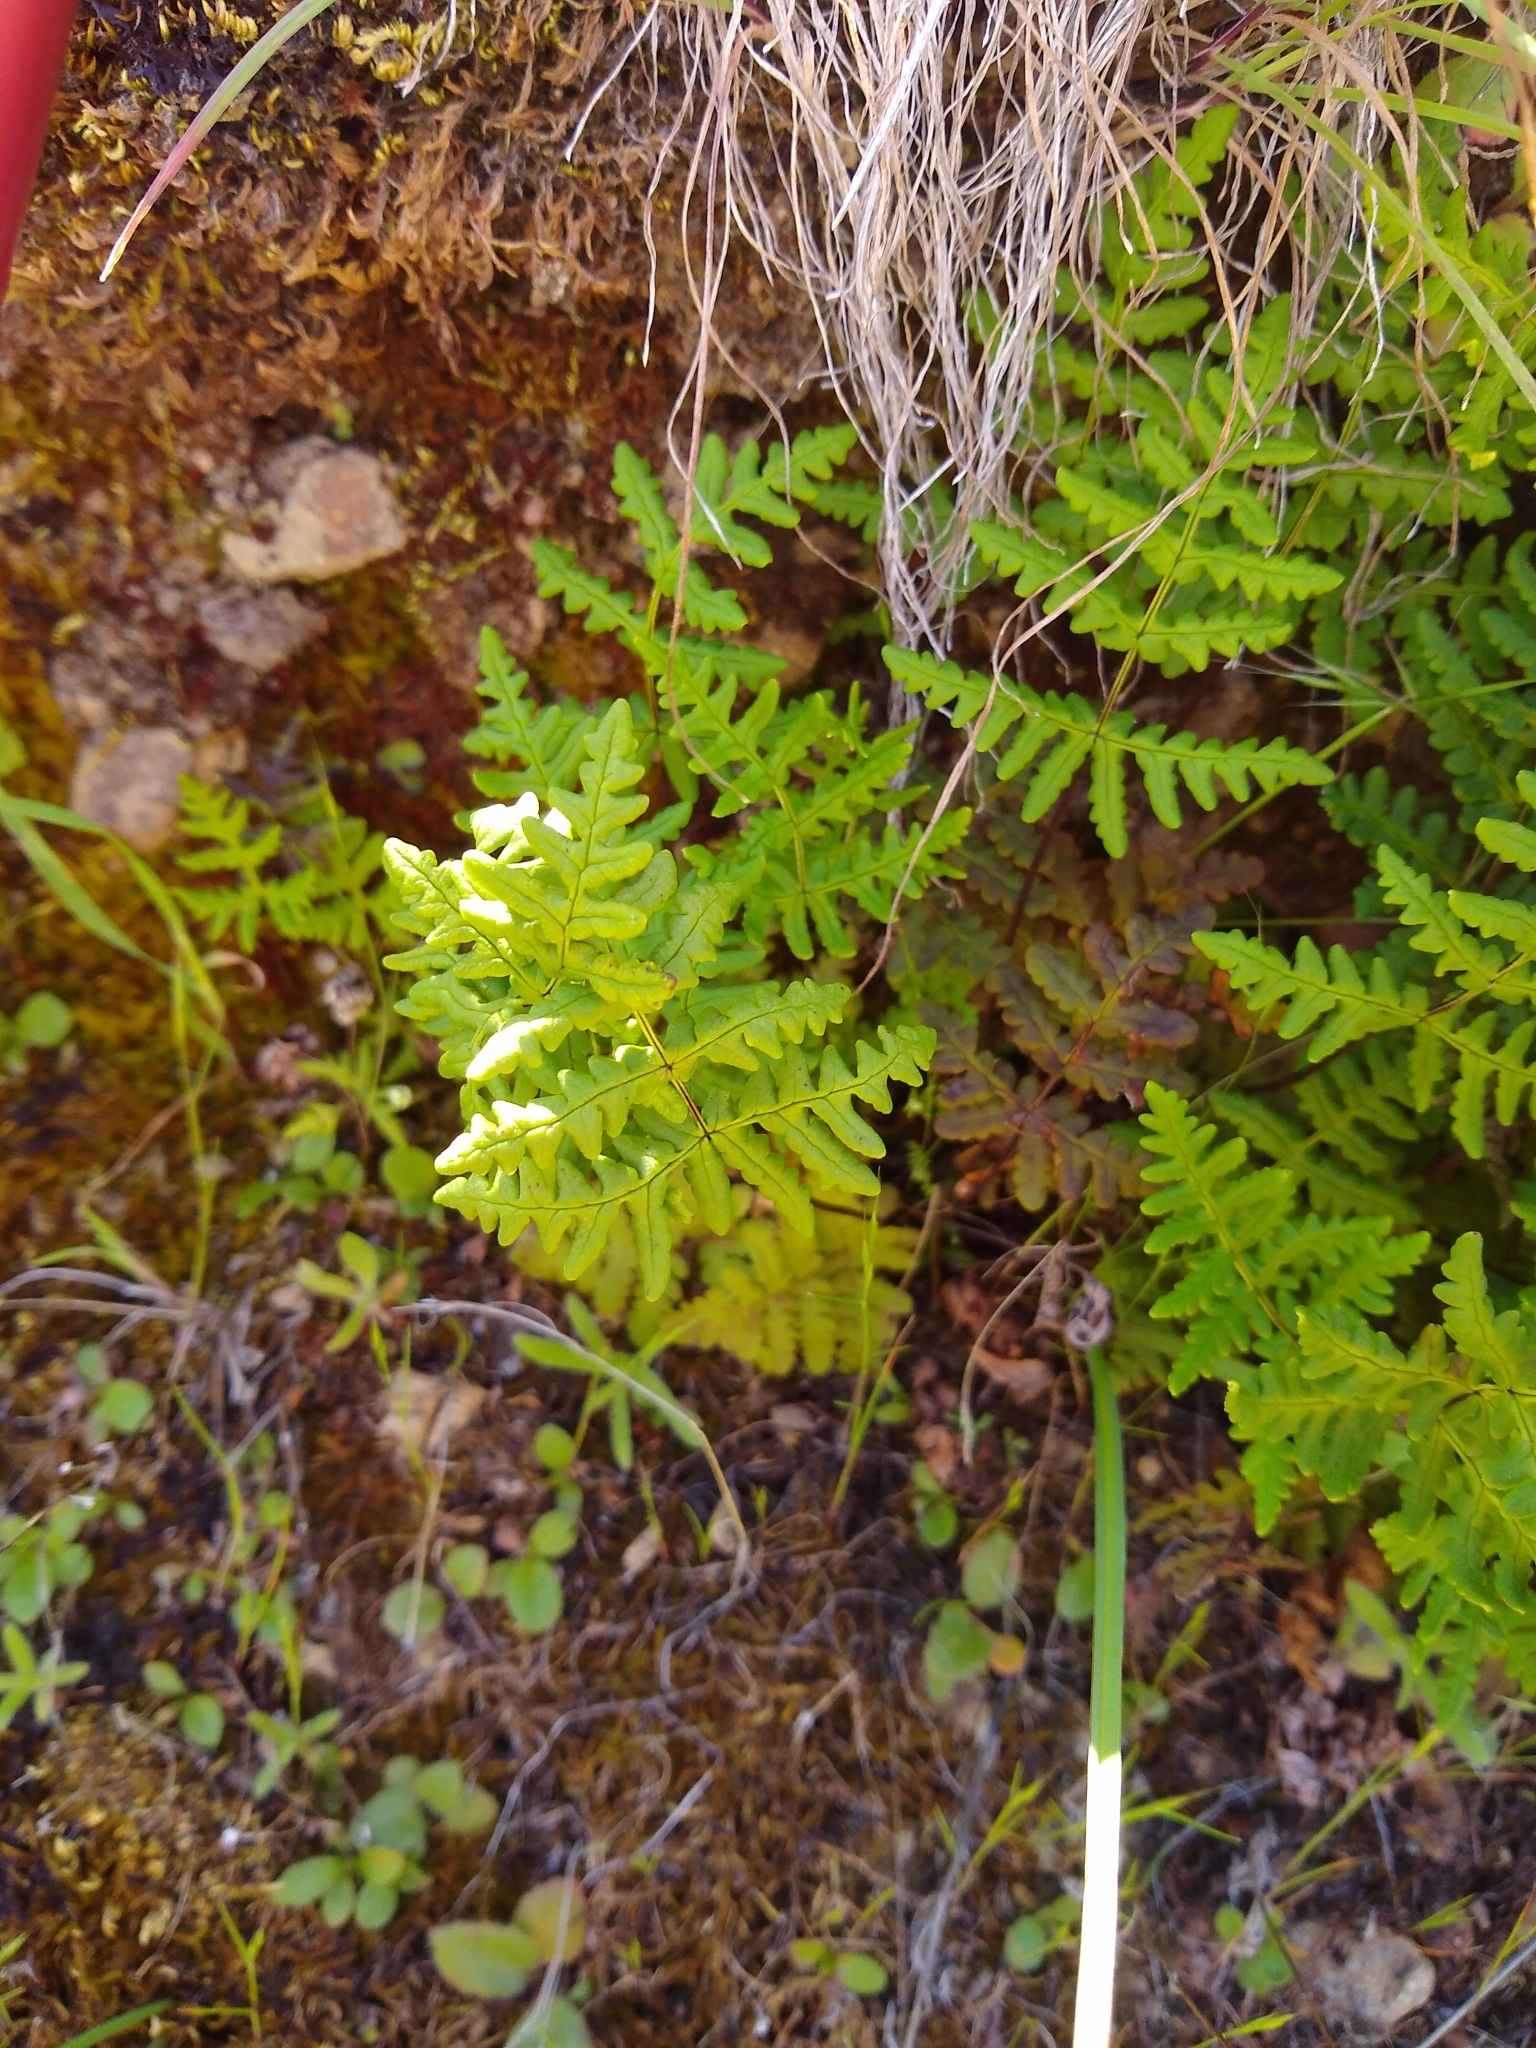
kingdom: Plantae
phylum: Tracheophyta
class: Polypodiopsida
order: Polypodiales
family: Pteridaceae
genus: Pentagramma
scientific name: Pentagramma triangularis
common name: Gold fern
